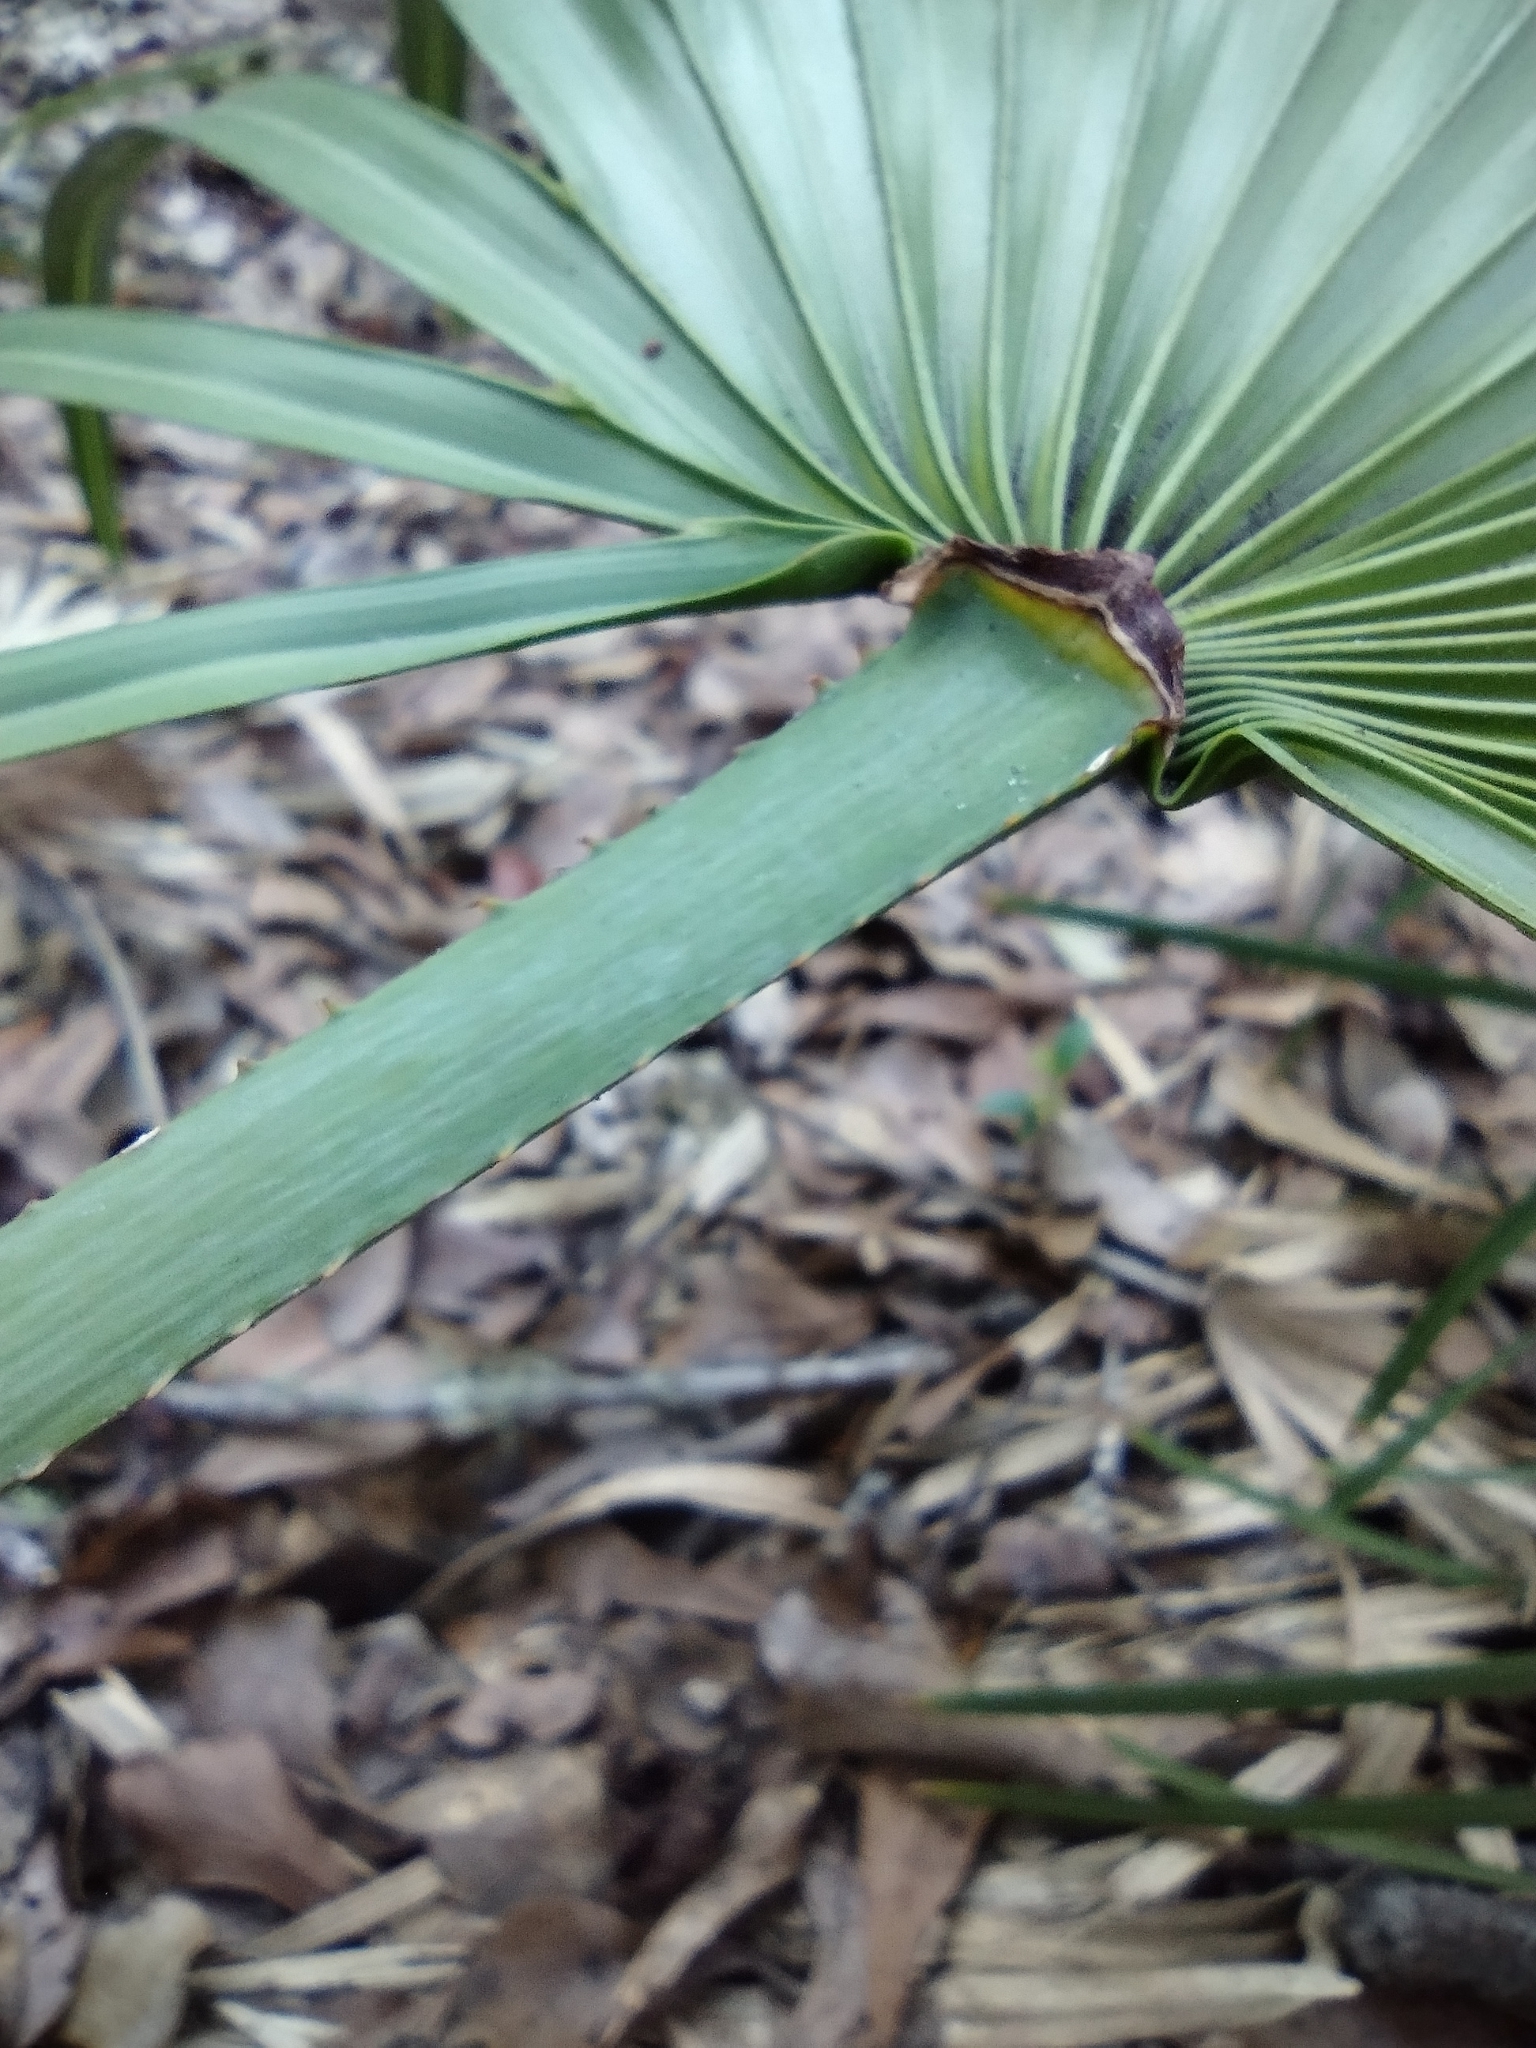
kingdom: Plantae
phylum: Tracheophyta
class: Liliopsida
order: Arecales
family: Arecaceae
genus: Serenoa
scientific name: Serenoa repens
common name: Saw-palmetto
